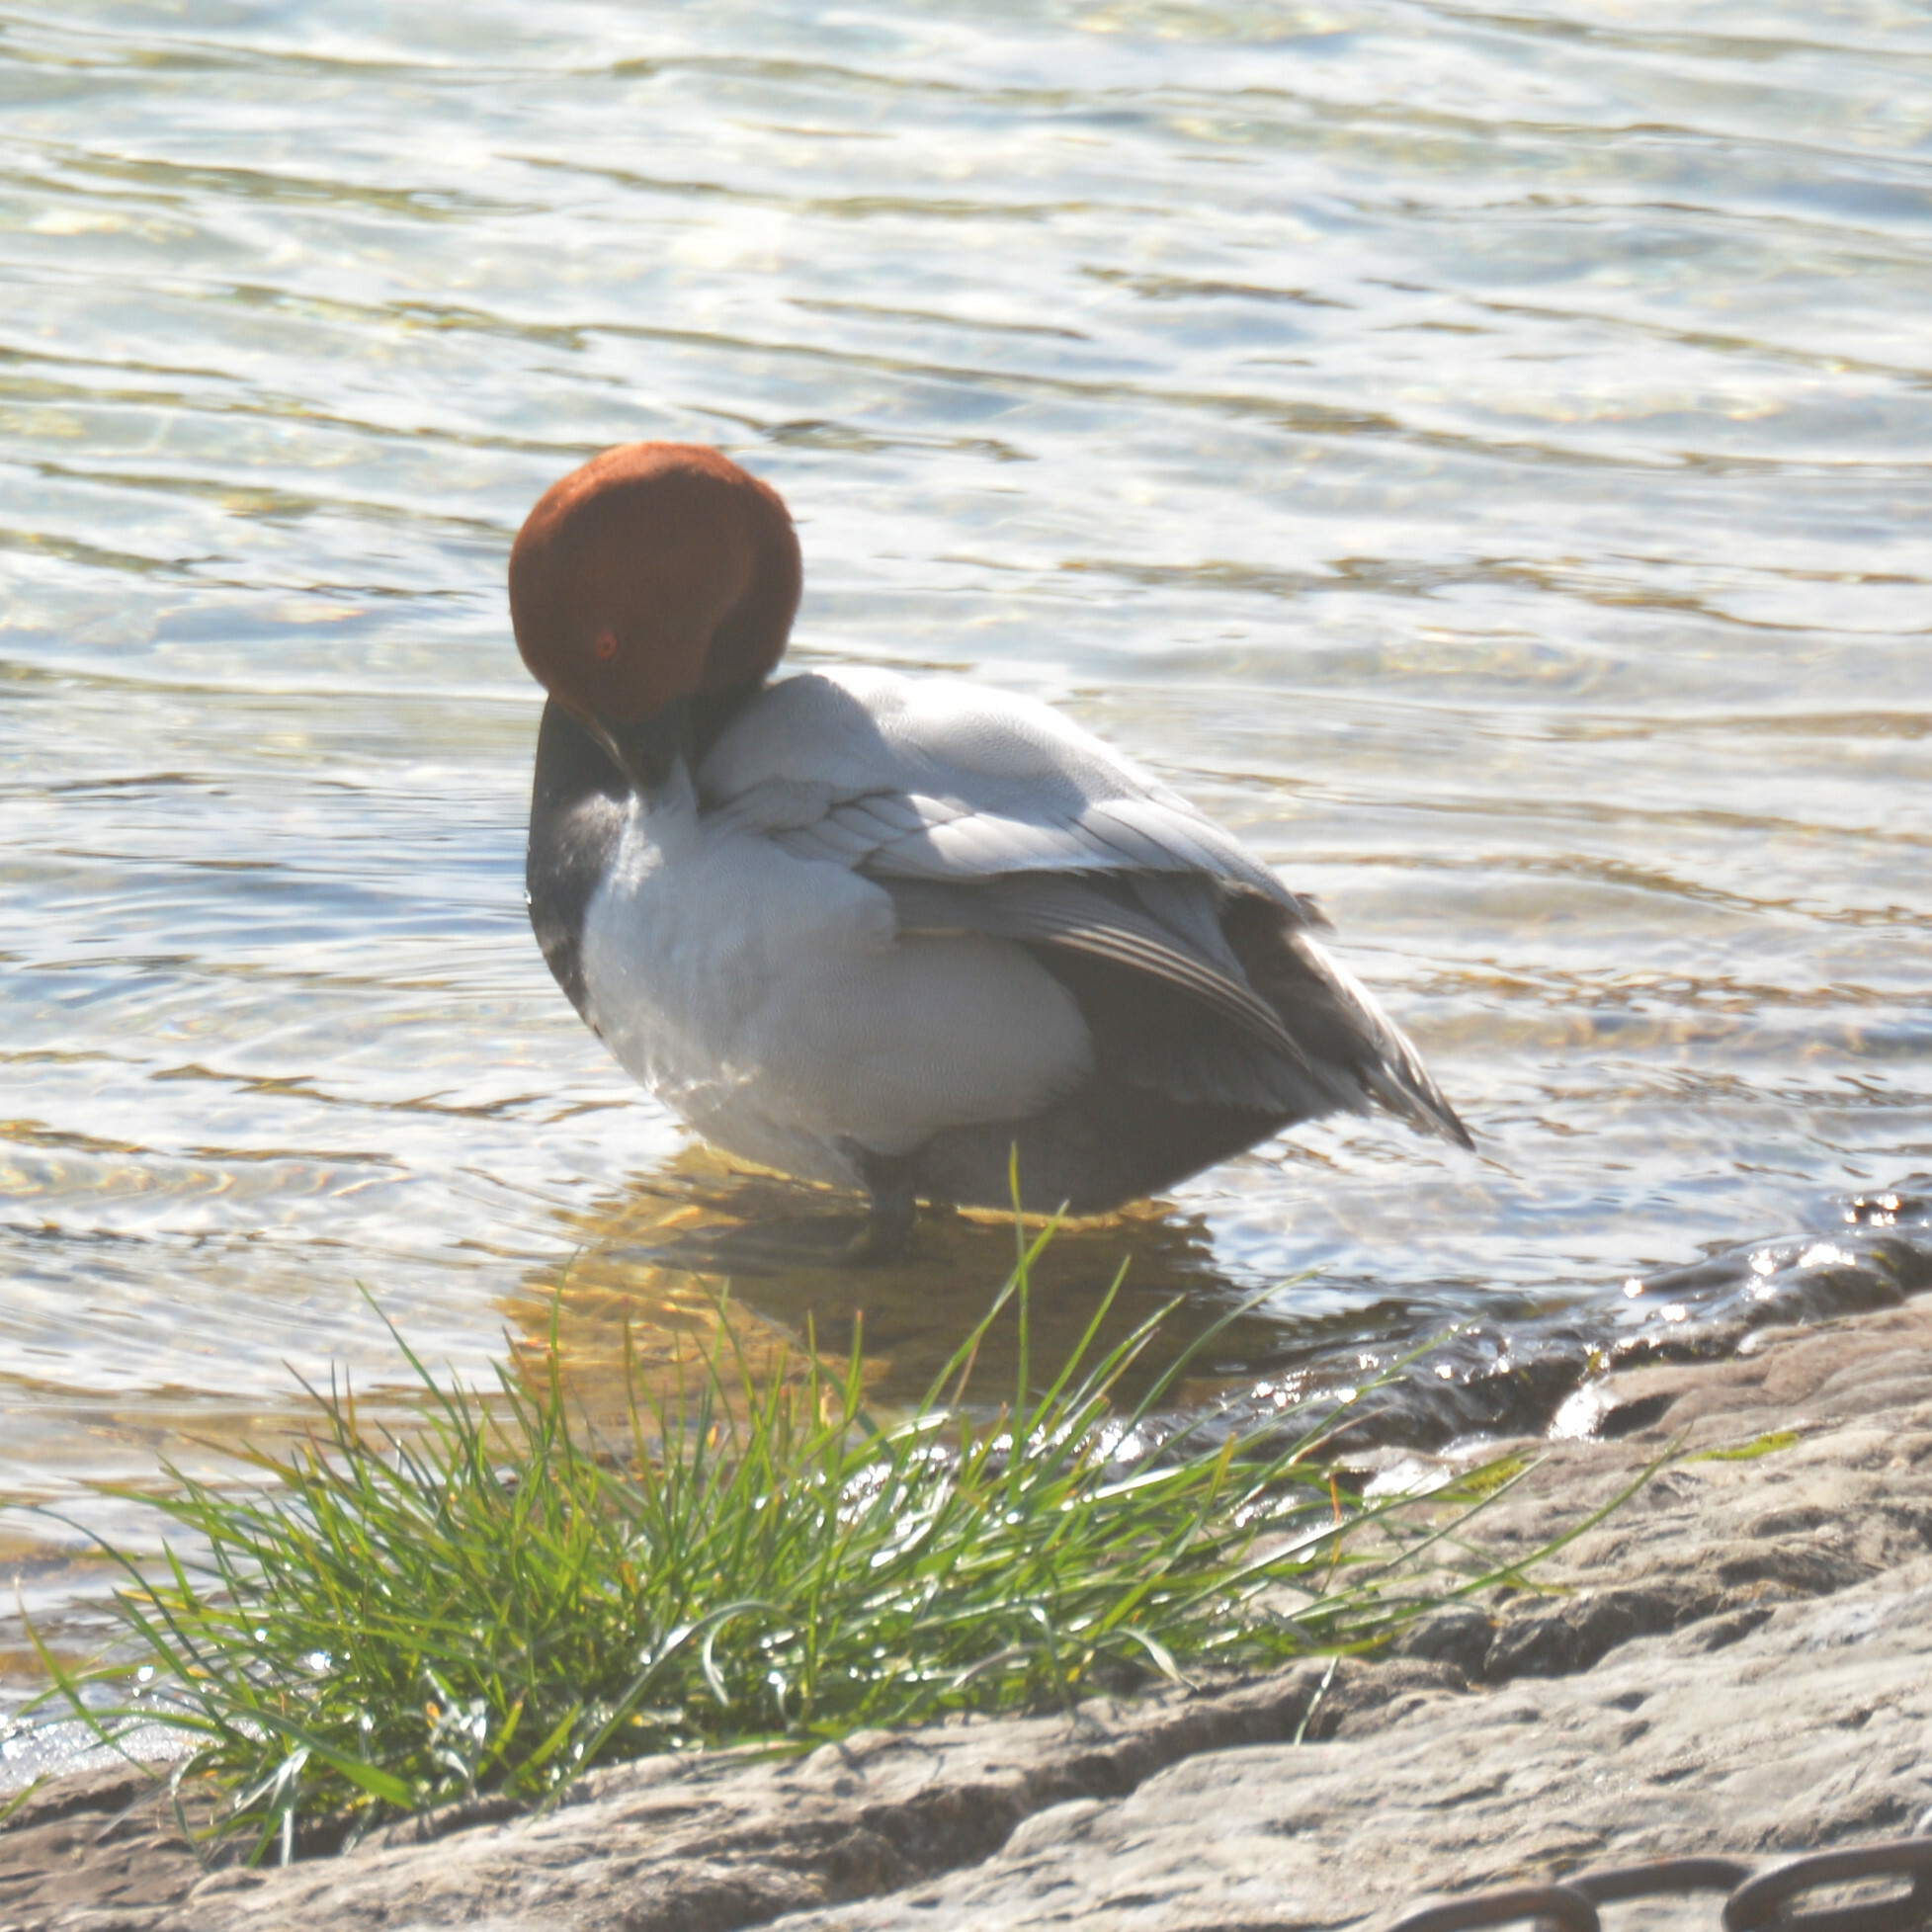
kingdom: Animalia
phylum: Chordata
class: Aves
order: Anseriformes
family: Anatidae
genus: Aythya
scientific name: Aythya ferina
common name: Common pochard
